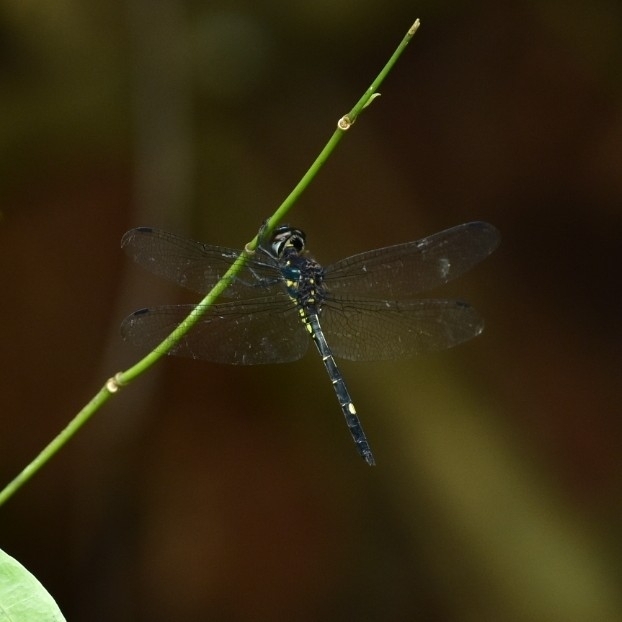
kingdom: Animalia
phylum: Arthropoda
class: Insecta
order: Odonata
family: Libellulidae
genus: Zygonyx
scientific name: Zygonyx iris
